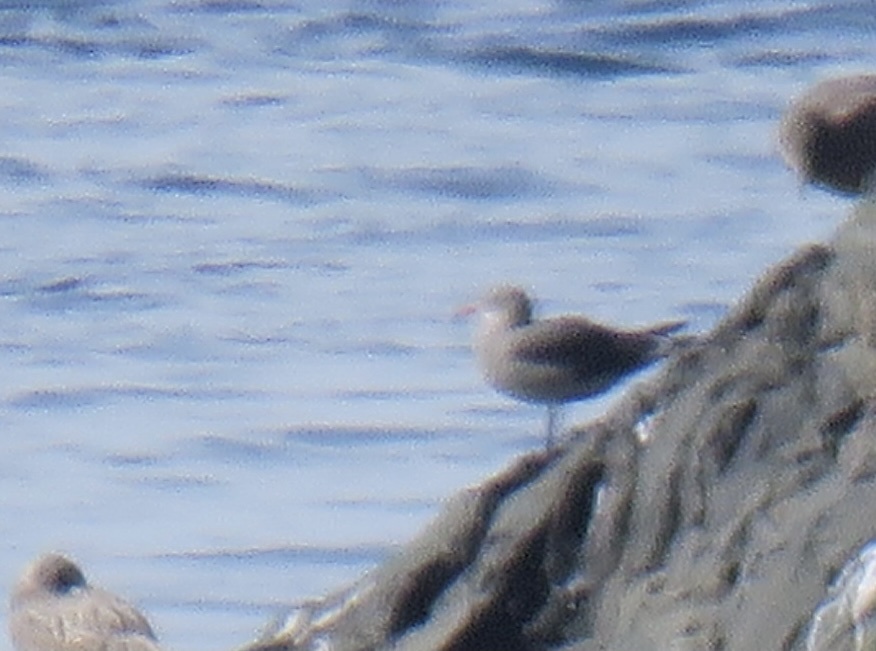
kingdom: Animalia
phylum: Chordata
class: Aves
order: Charadriiformes
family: Laridae
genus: Larus
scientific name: Larus heermanni
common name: Heermann's gull
